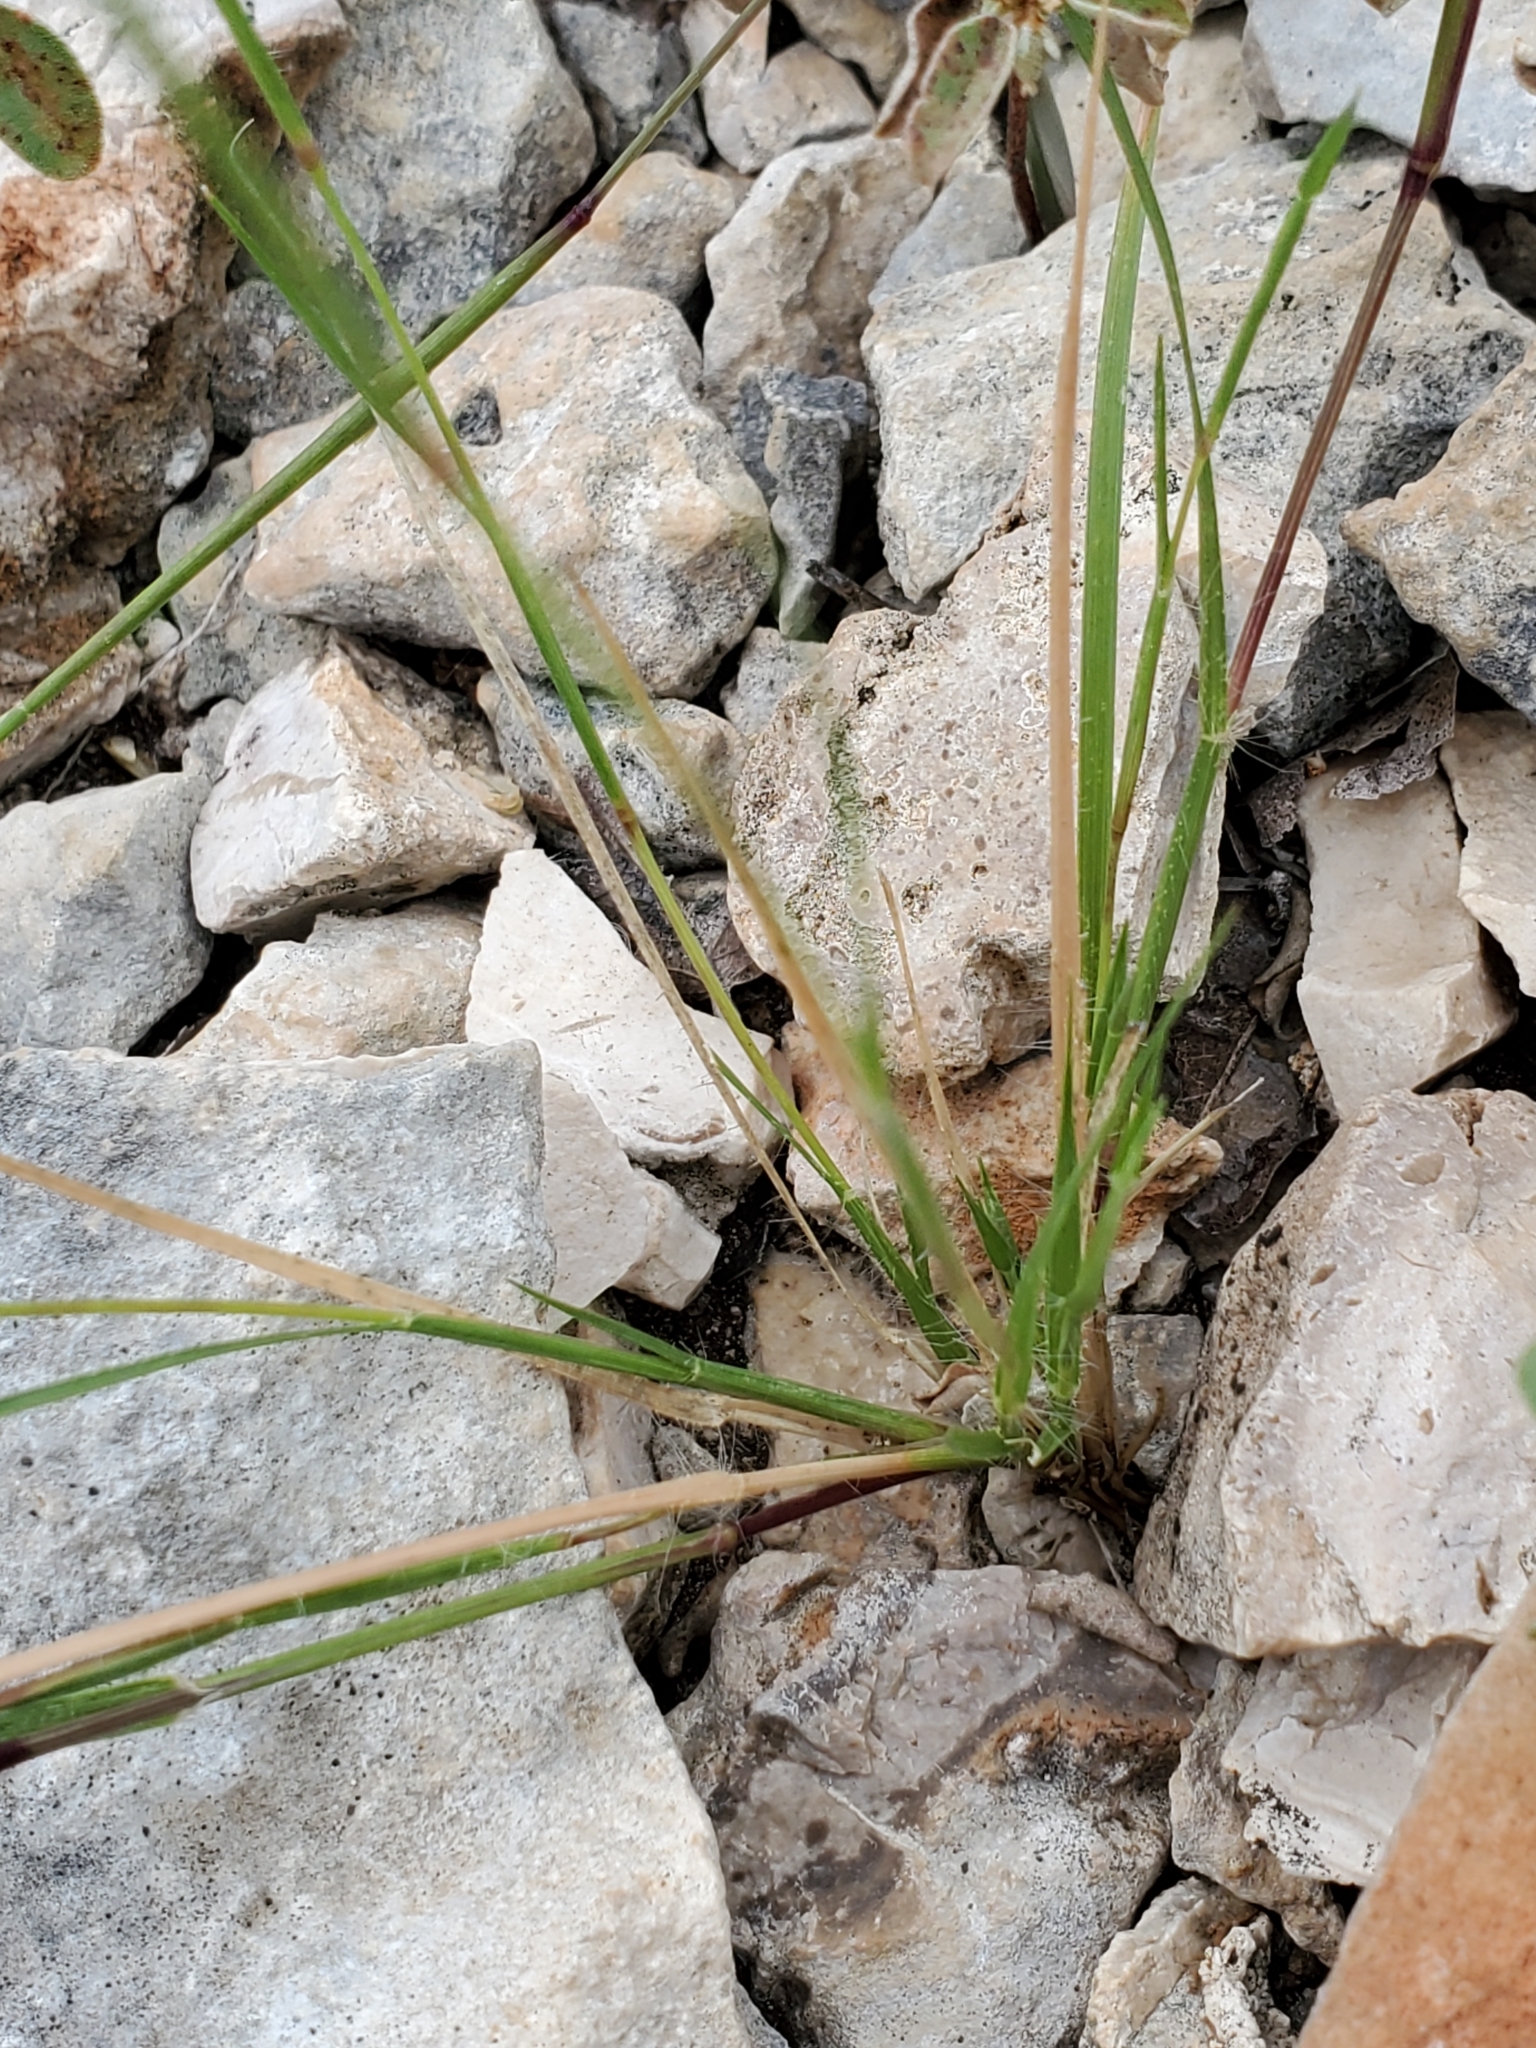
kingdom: Plantae
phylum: Tracheophyta
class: Liliopsida
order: Poales
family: Poaceae
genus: Sporobolus
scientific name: Sporobolus vaginiflorus
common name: Poverty dropseed
